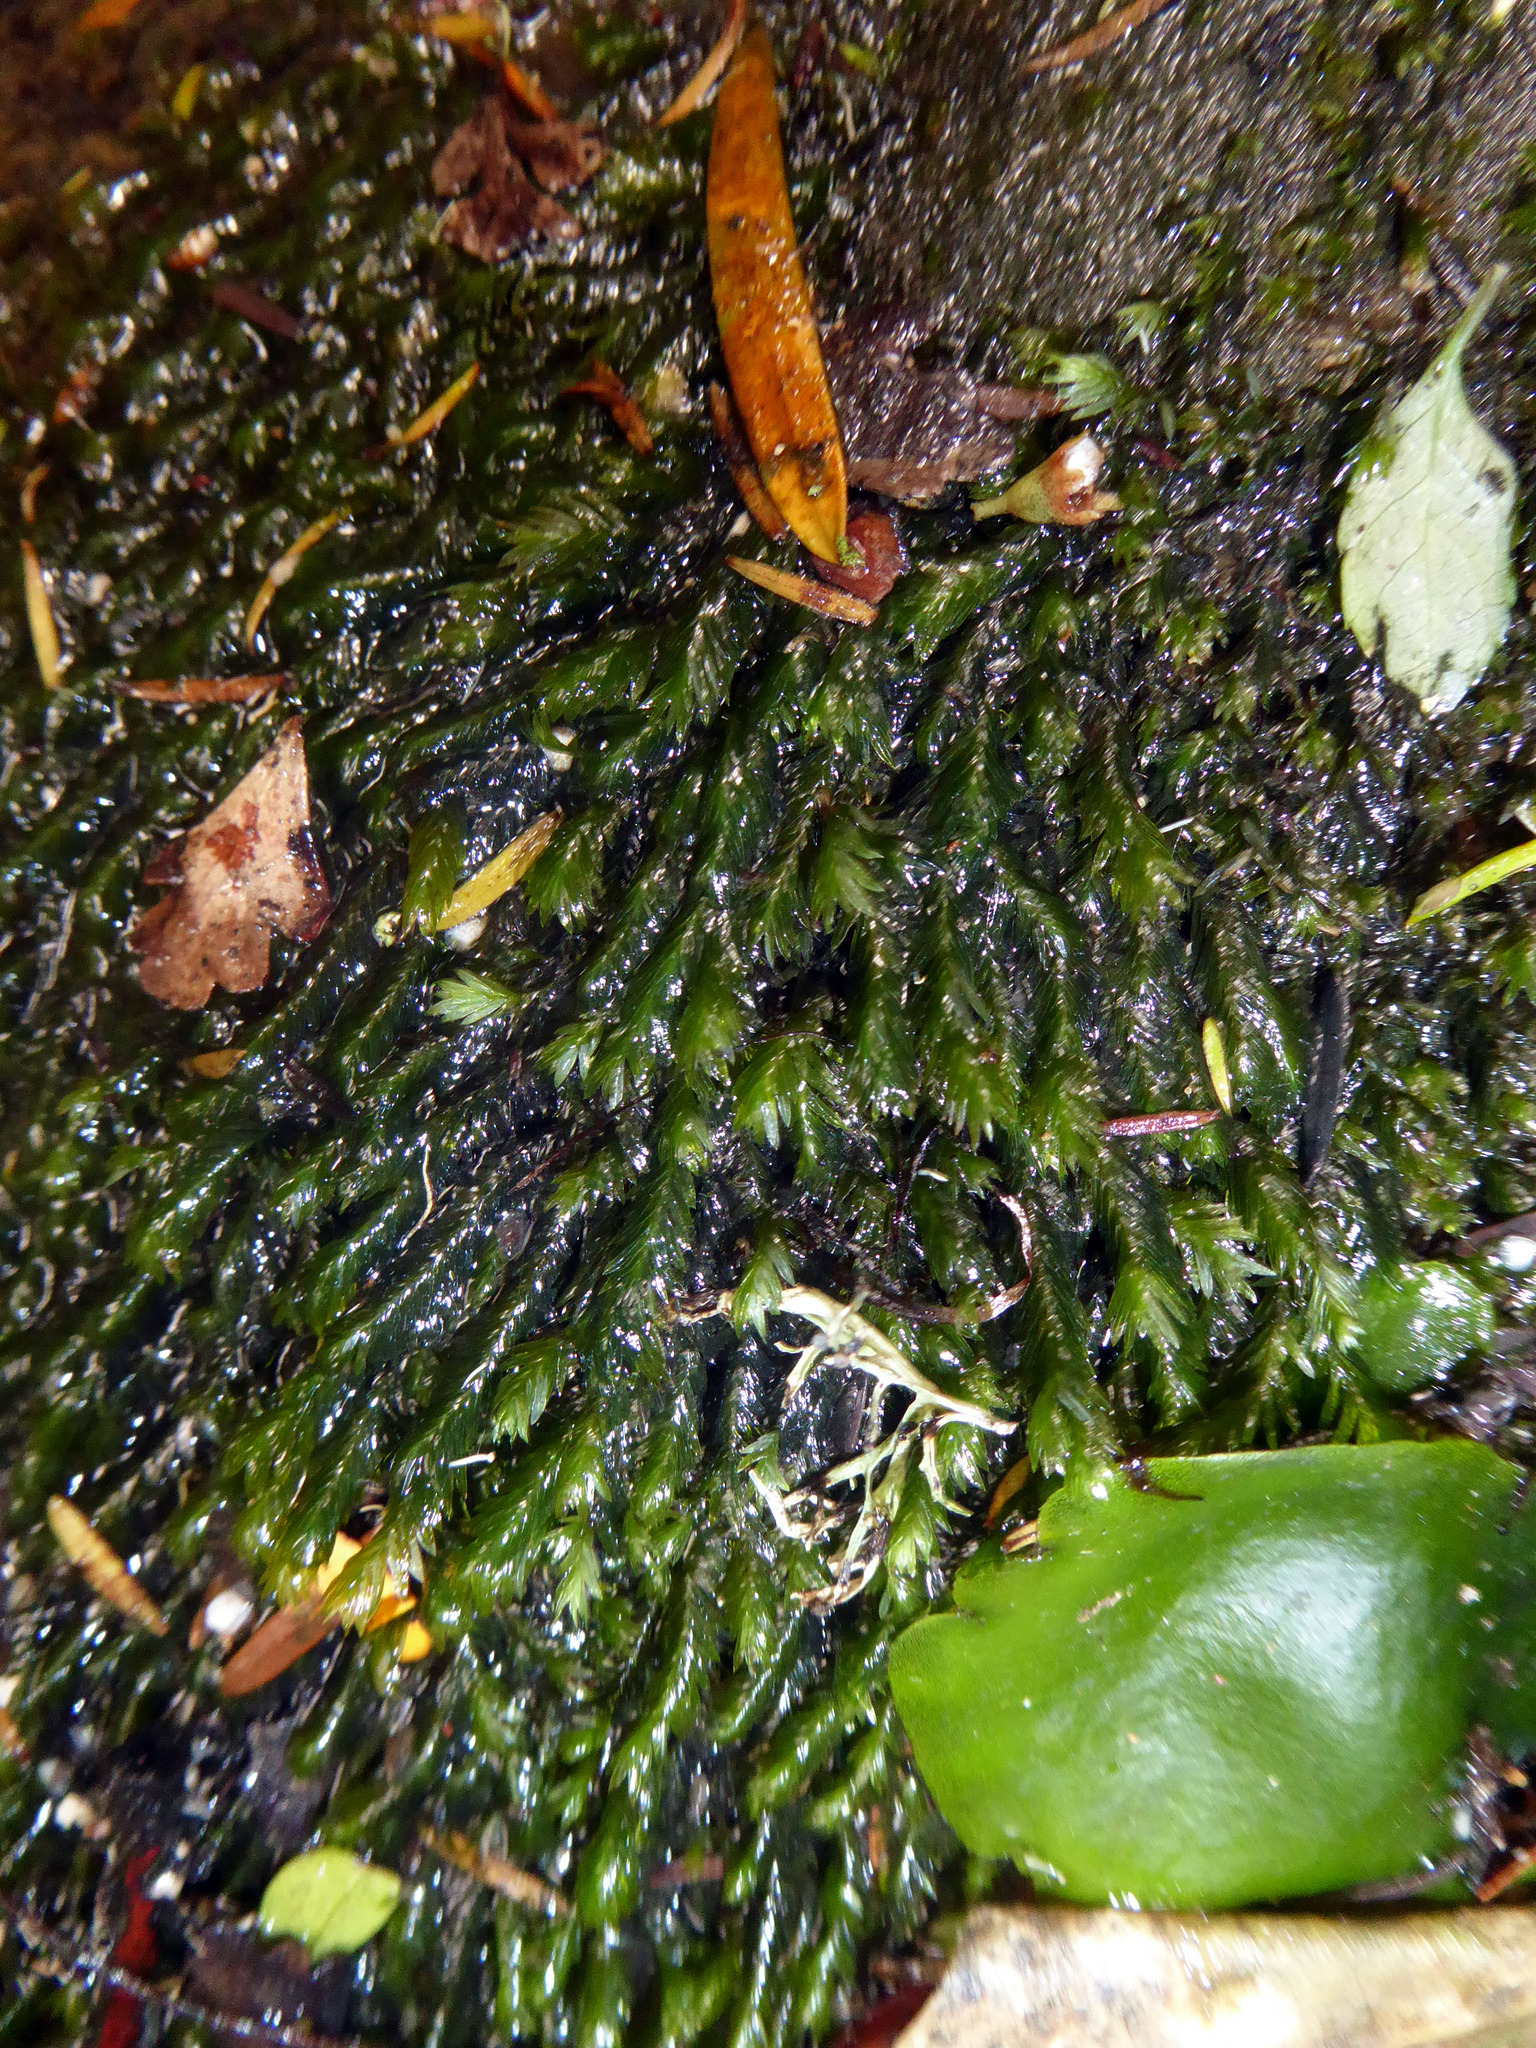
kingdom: Plantae
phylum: Bryophyta
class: Bryopsida
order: Dicranales
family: Fissidentaceae
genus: Fissidens
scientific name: Fissidens rigidulus
